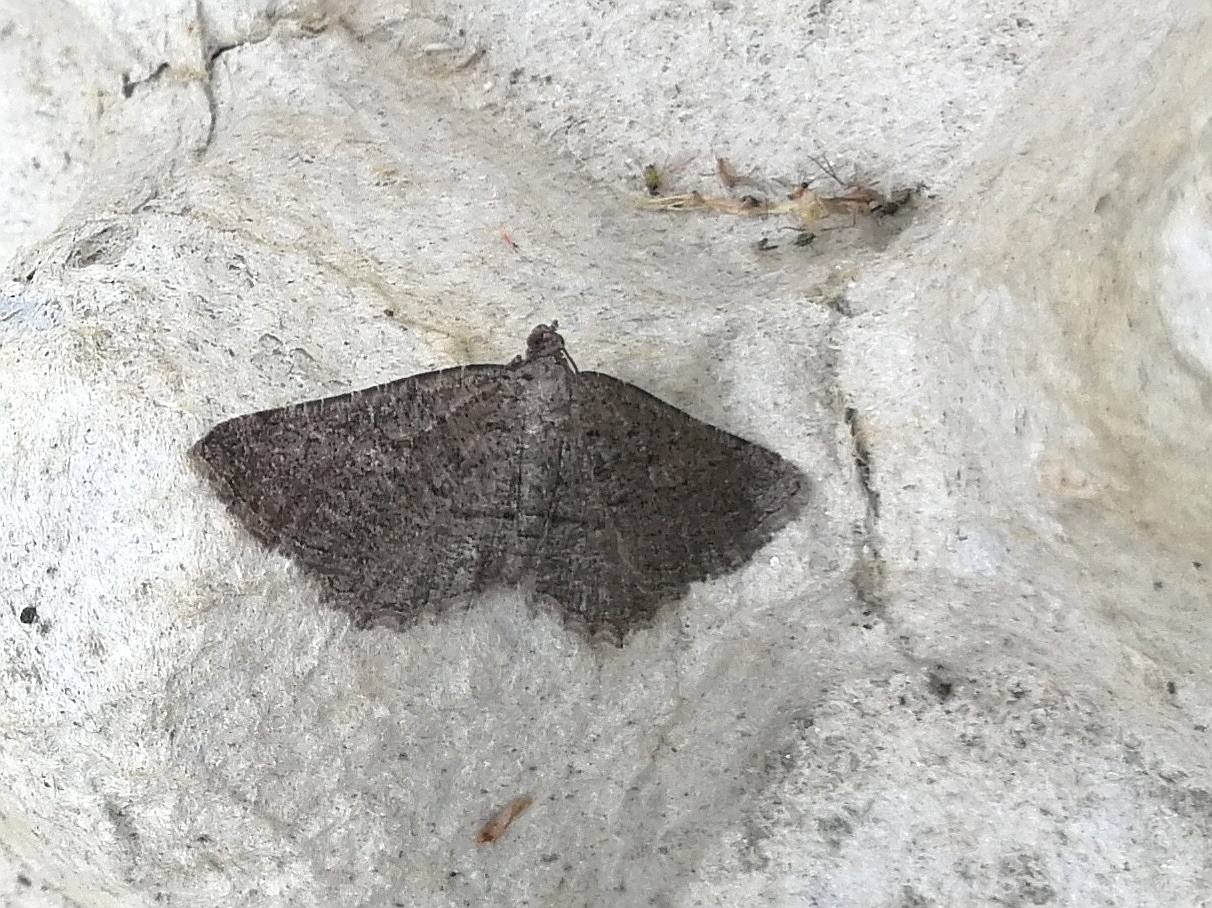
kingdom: Animalia
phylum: Arthropoda
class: Insecta
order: Lepidoptera
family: Geometridae
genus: Rhoptria
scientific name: Rhoptria asperaria
